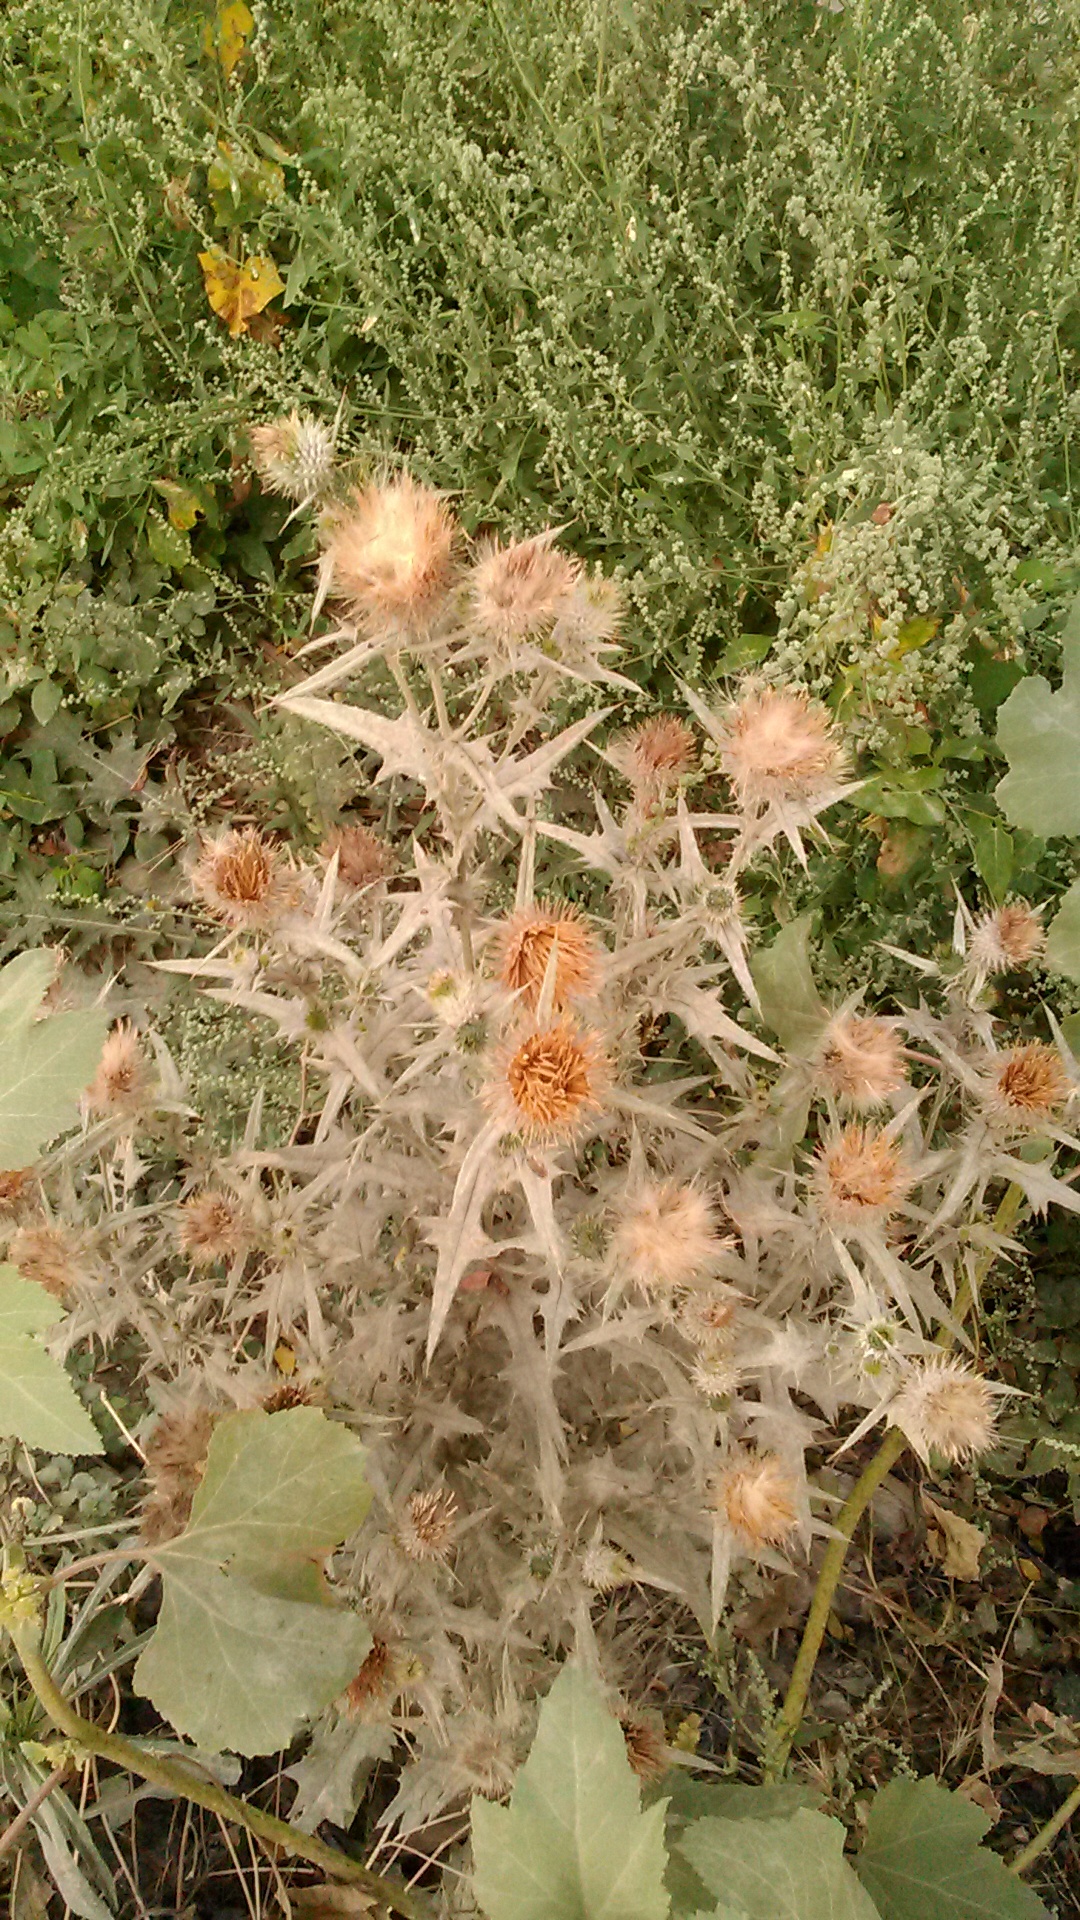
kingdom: Plantae
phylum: Tracheophyta
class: Magnoliopsida
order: Asterales
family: Asteraceae
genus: Onopordum
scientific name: Onopordum acanthium
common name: Scotch thistle
